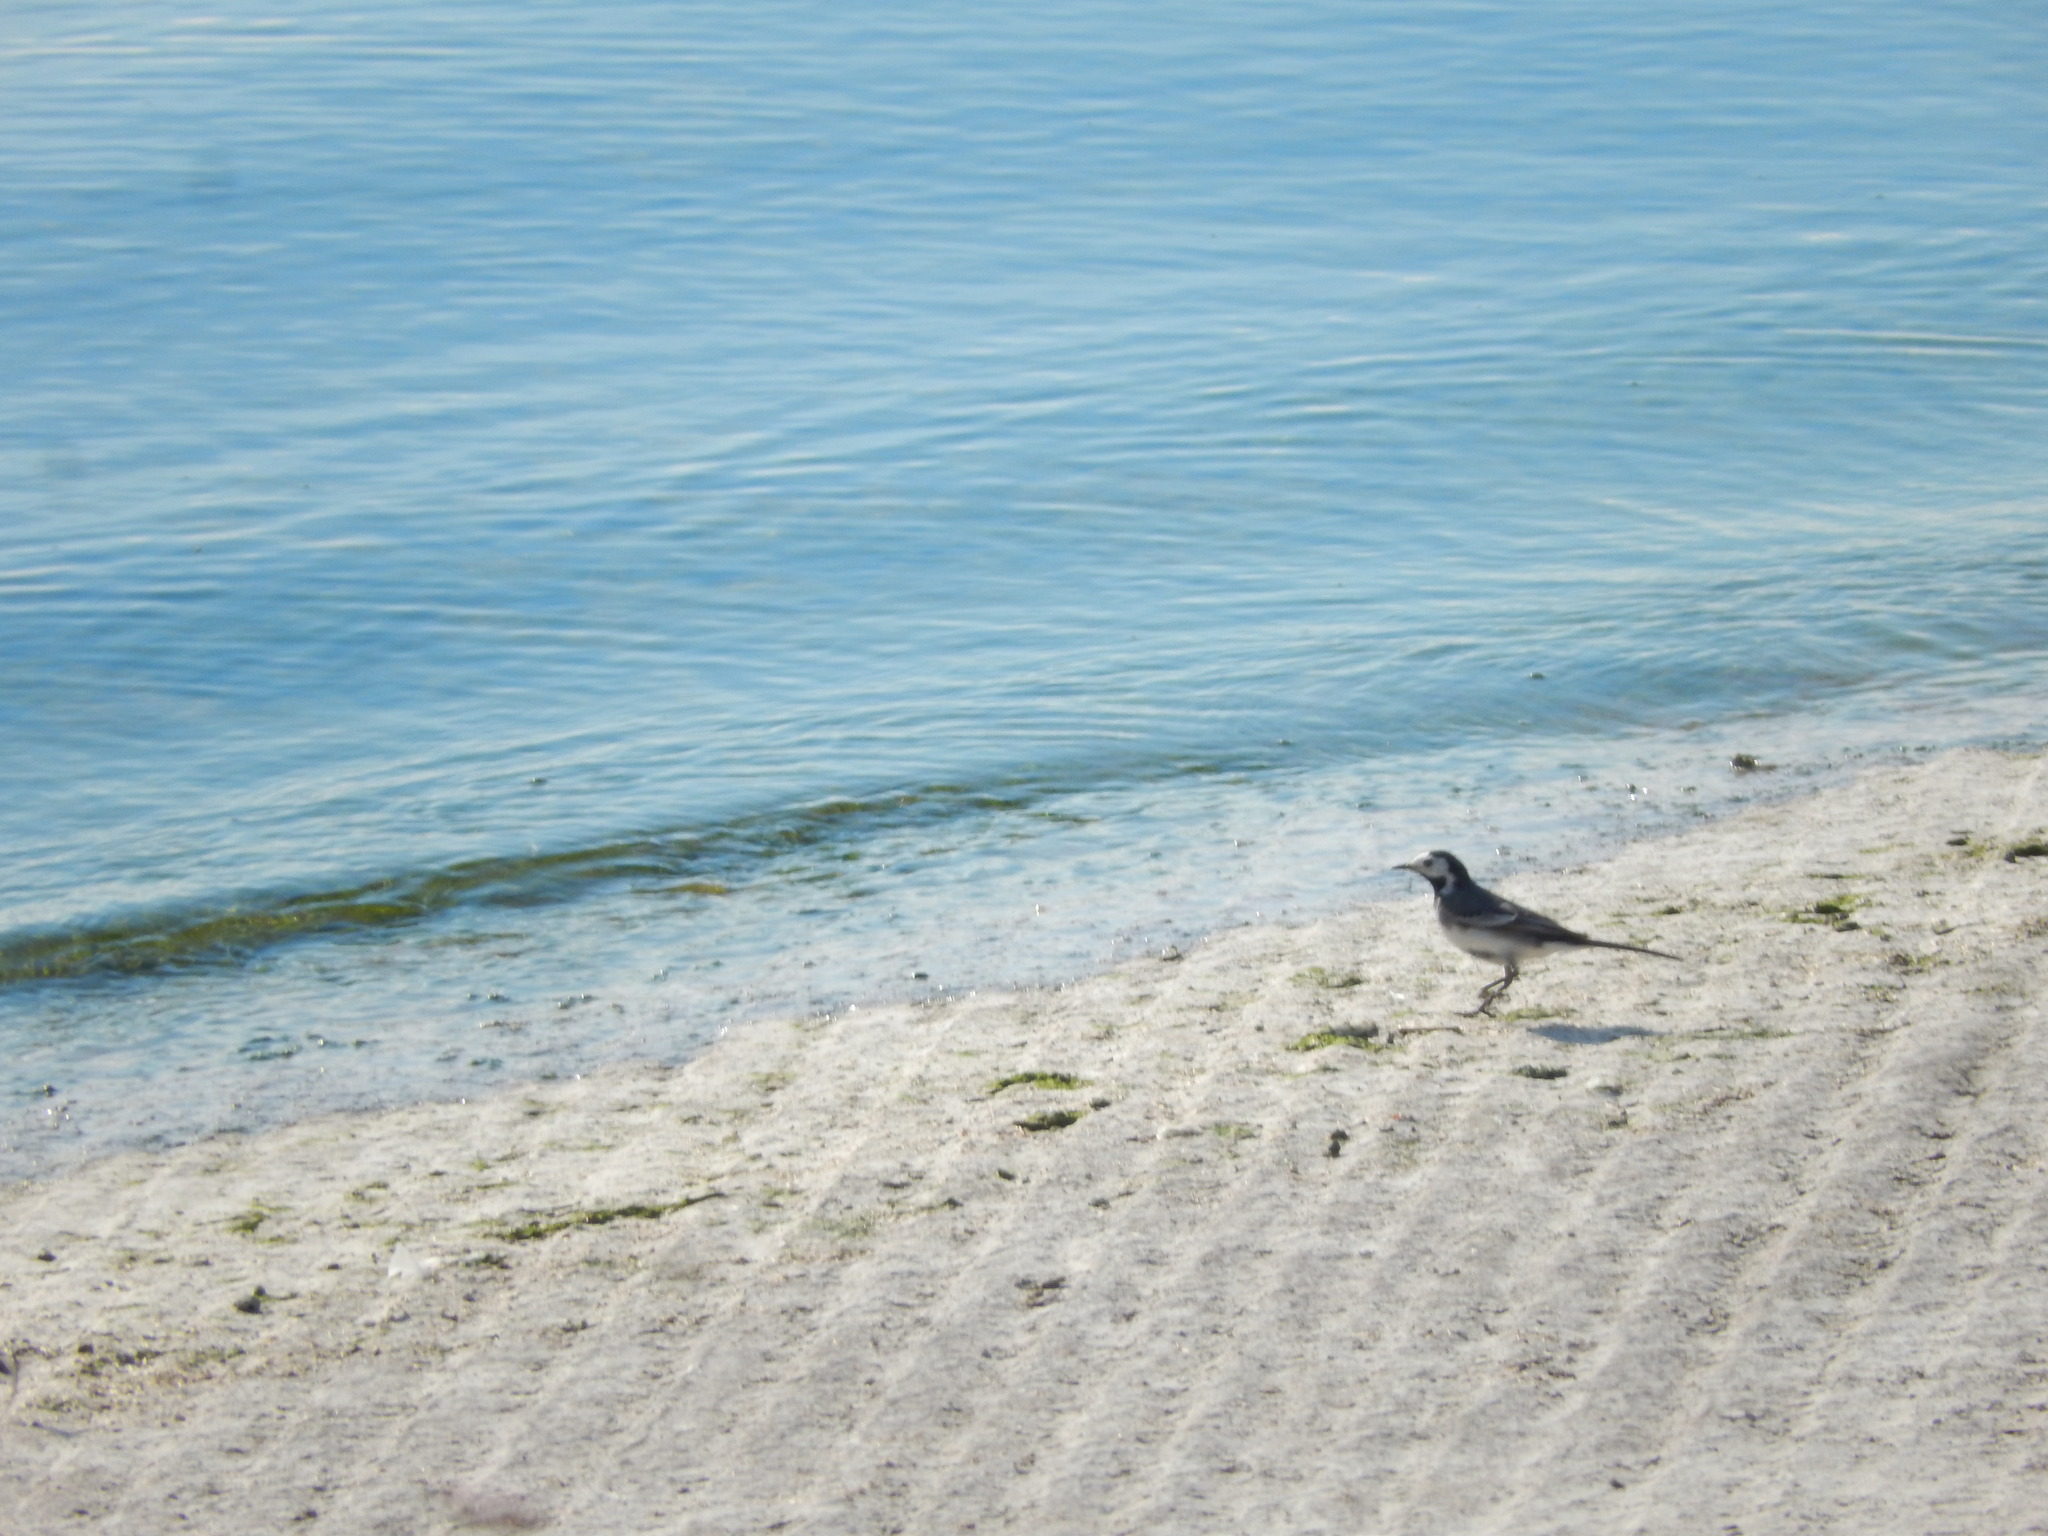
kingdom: Animalia
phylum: Chordata
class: Aves
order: Passeriformes
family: Motacillidae
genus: Motacilla
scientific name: Motacilla alba
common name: White wagtail
